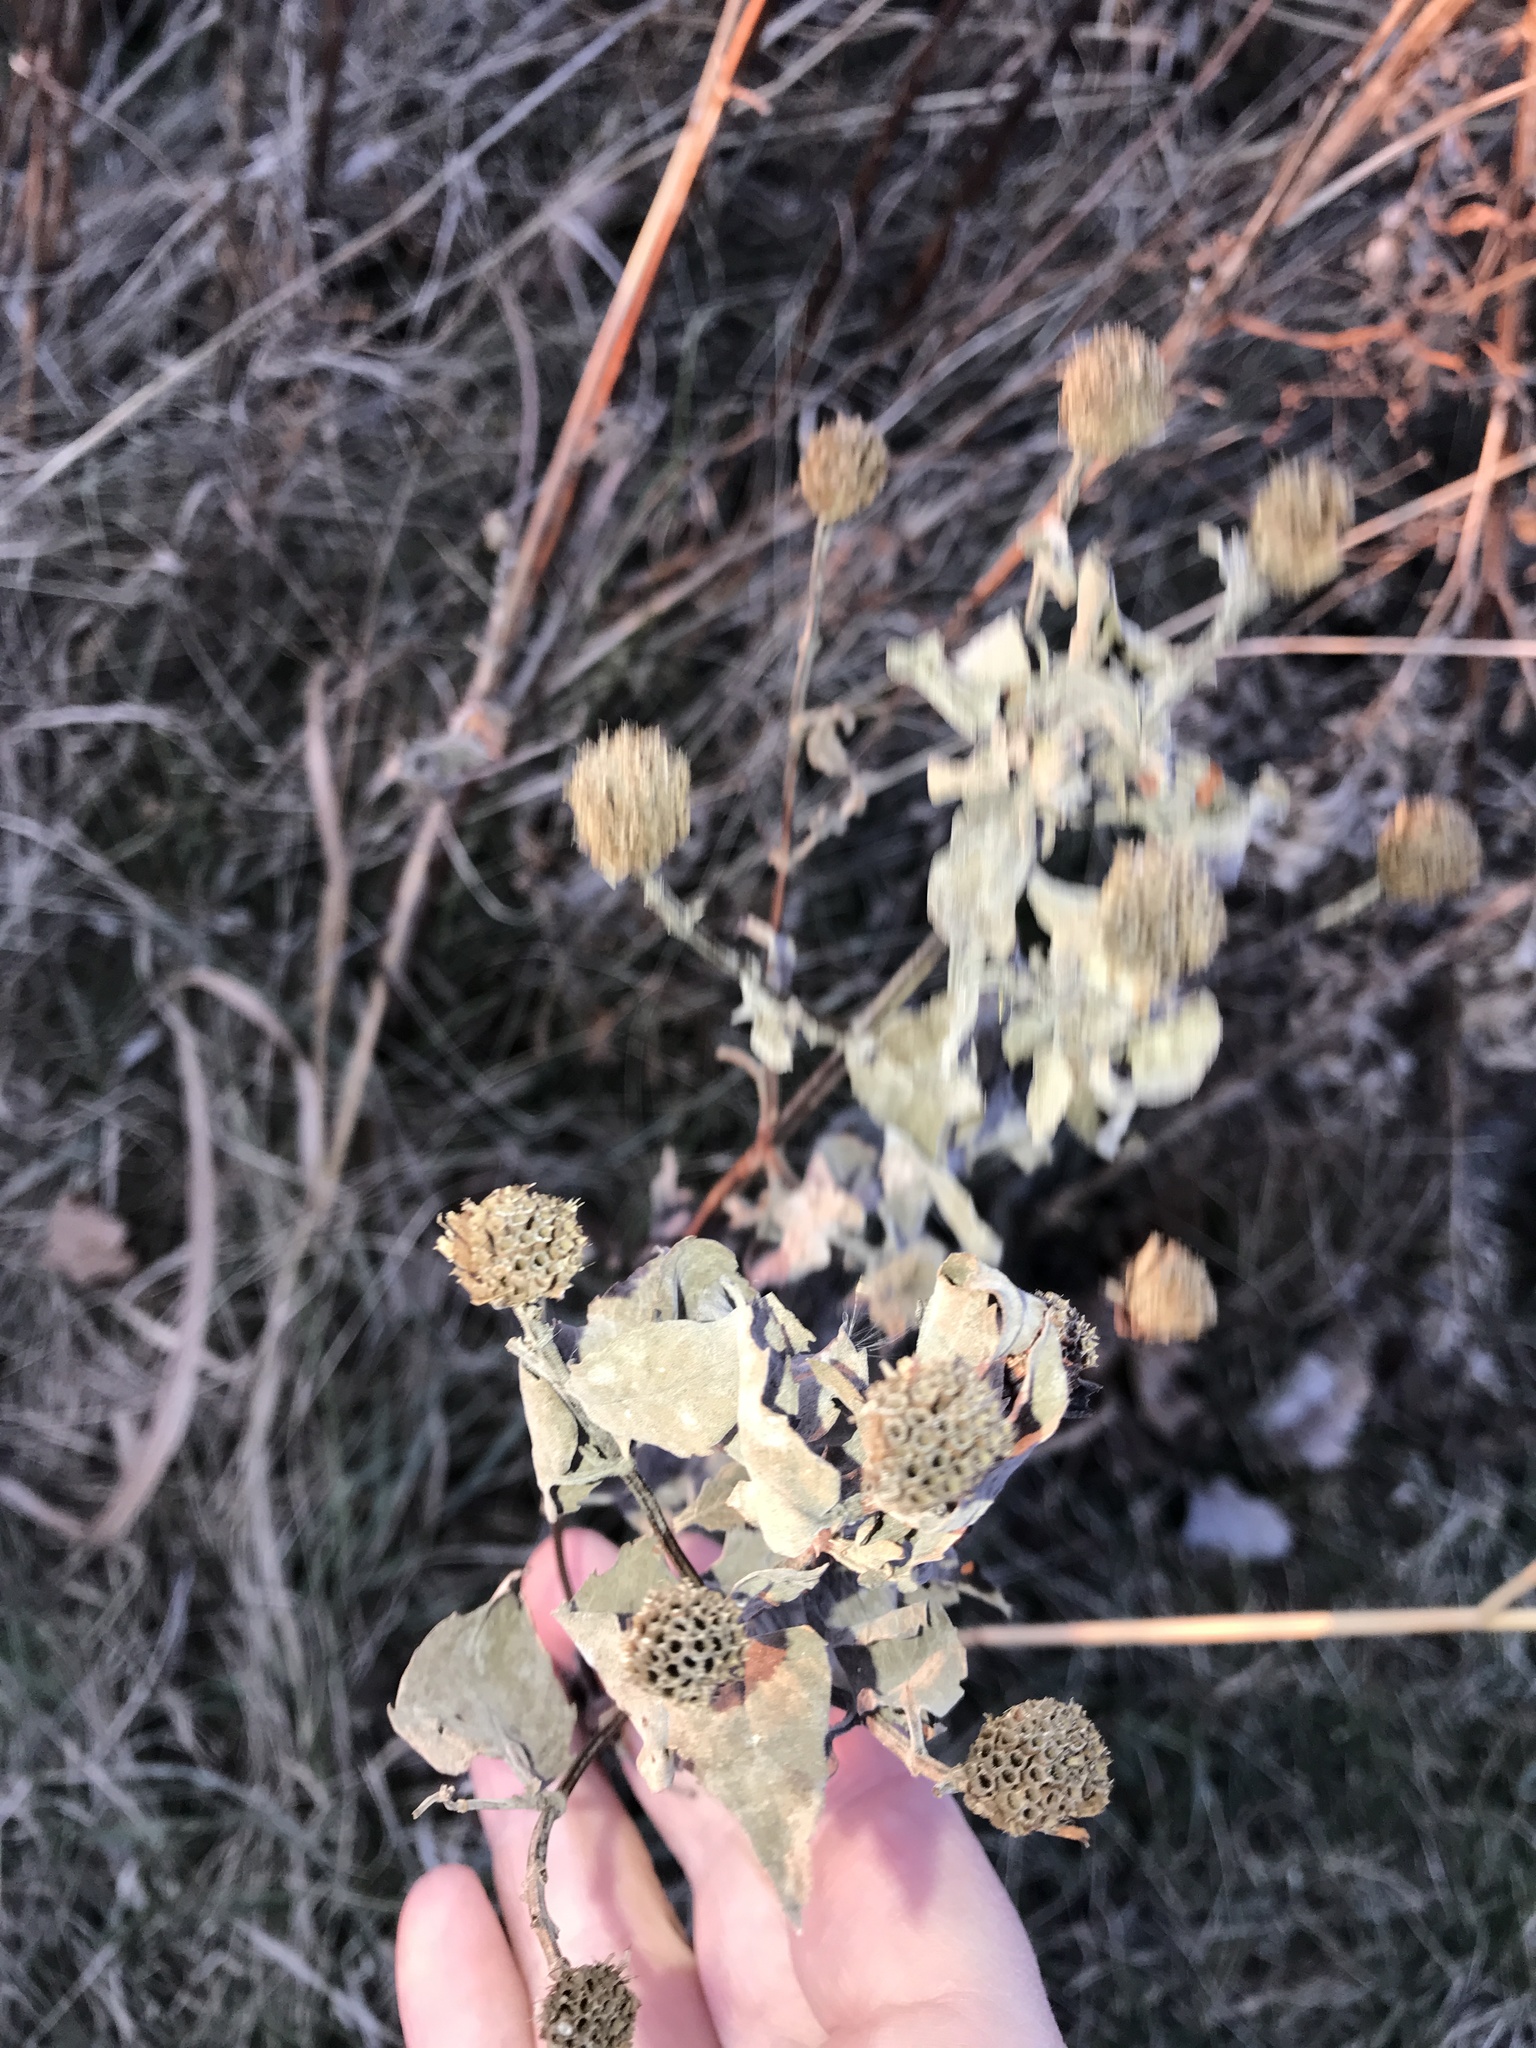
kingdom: Plantae
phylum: Tracheophyta
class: Magnoliopsida
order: Lamiales
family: Lamiaceae
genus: Monarda
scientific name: Monarda fistulosa
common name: Purple beebalm
